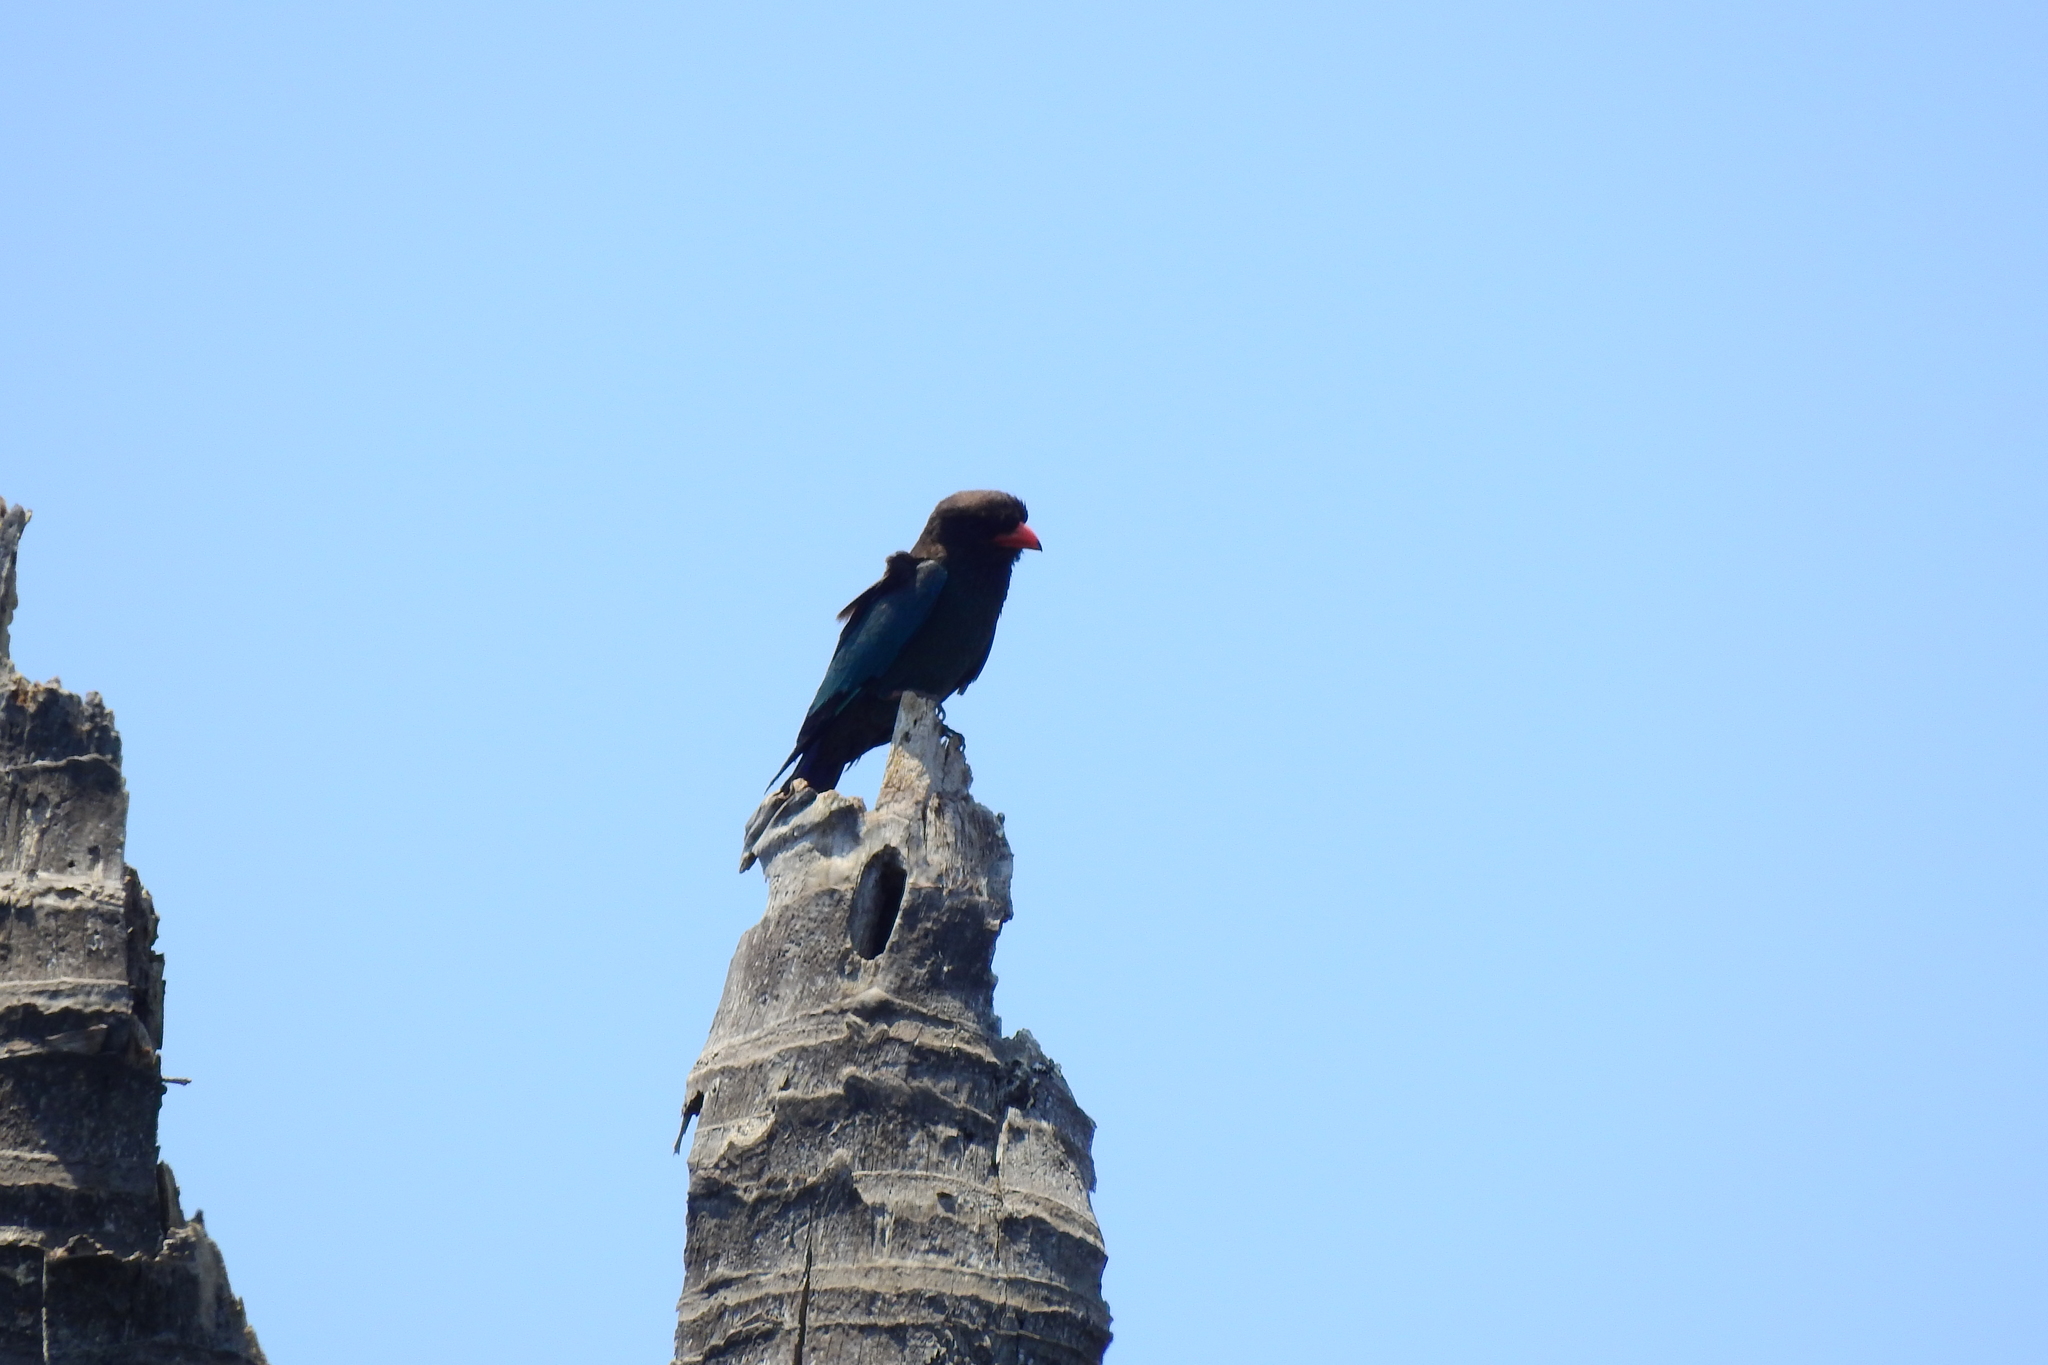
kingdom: Animalia
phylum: Chordata
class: Aves
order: Coraciiformes
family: Coraciidae
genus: Eurystomus
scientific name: Eurystomus orientalis
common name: Oriental dollarbird
